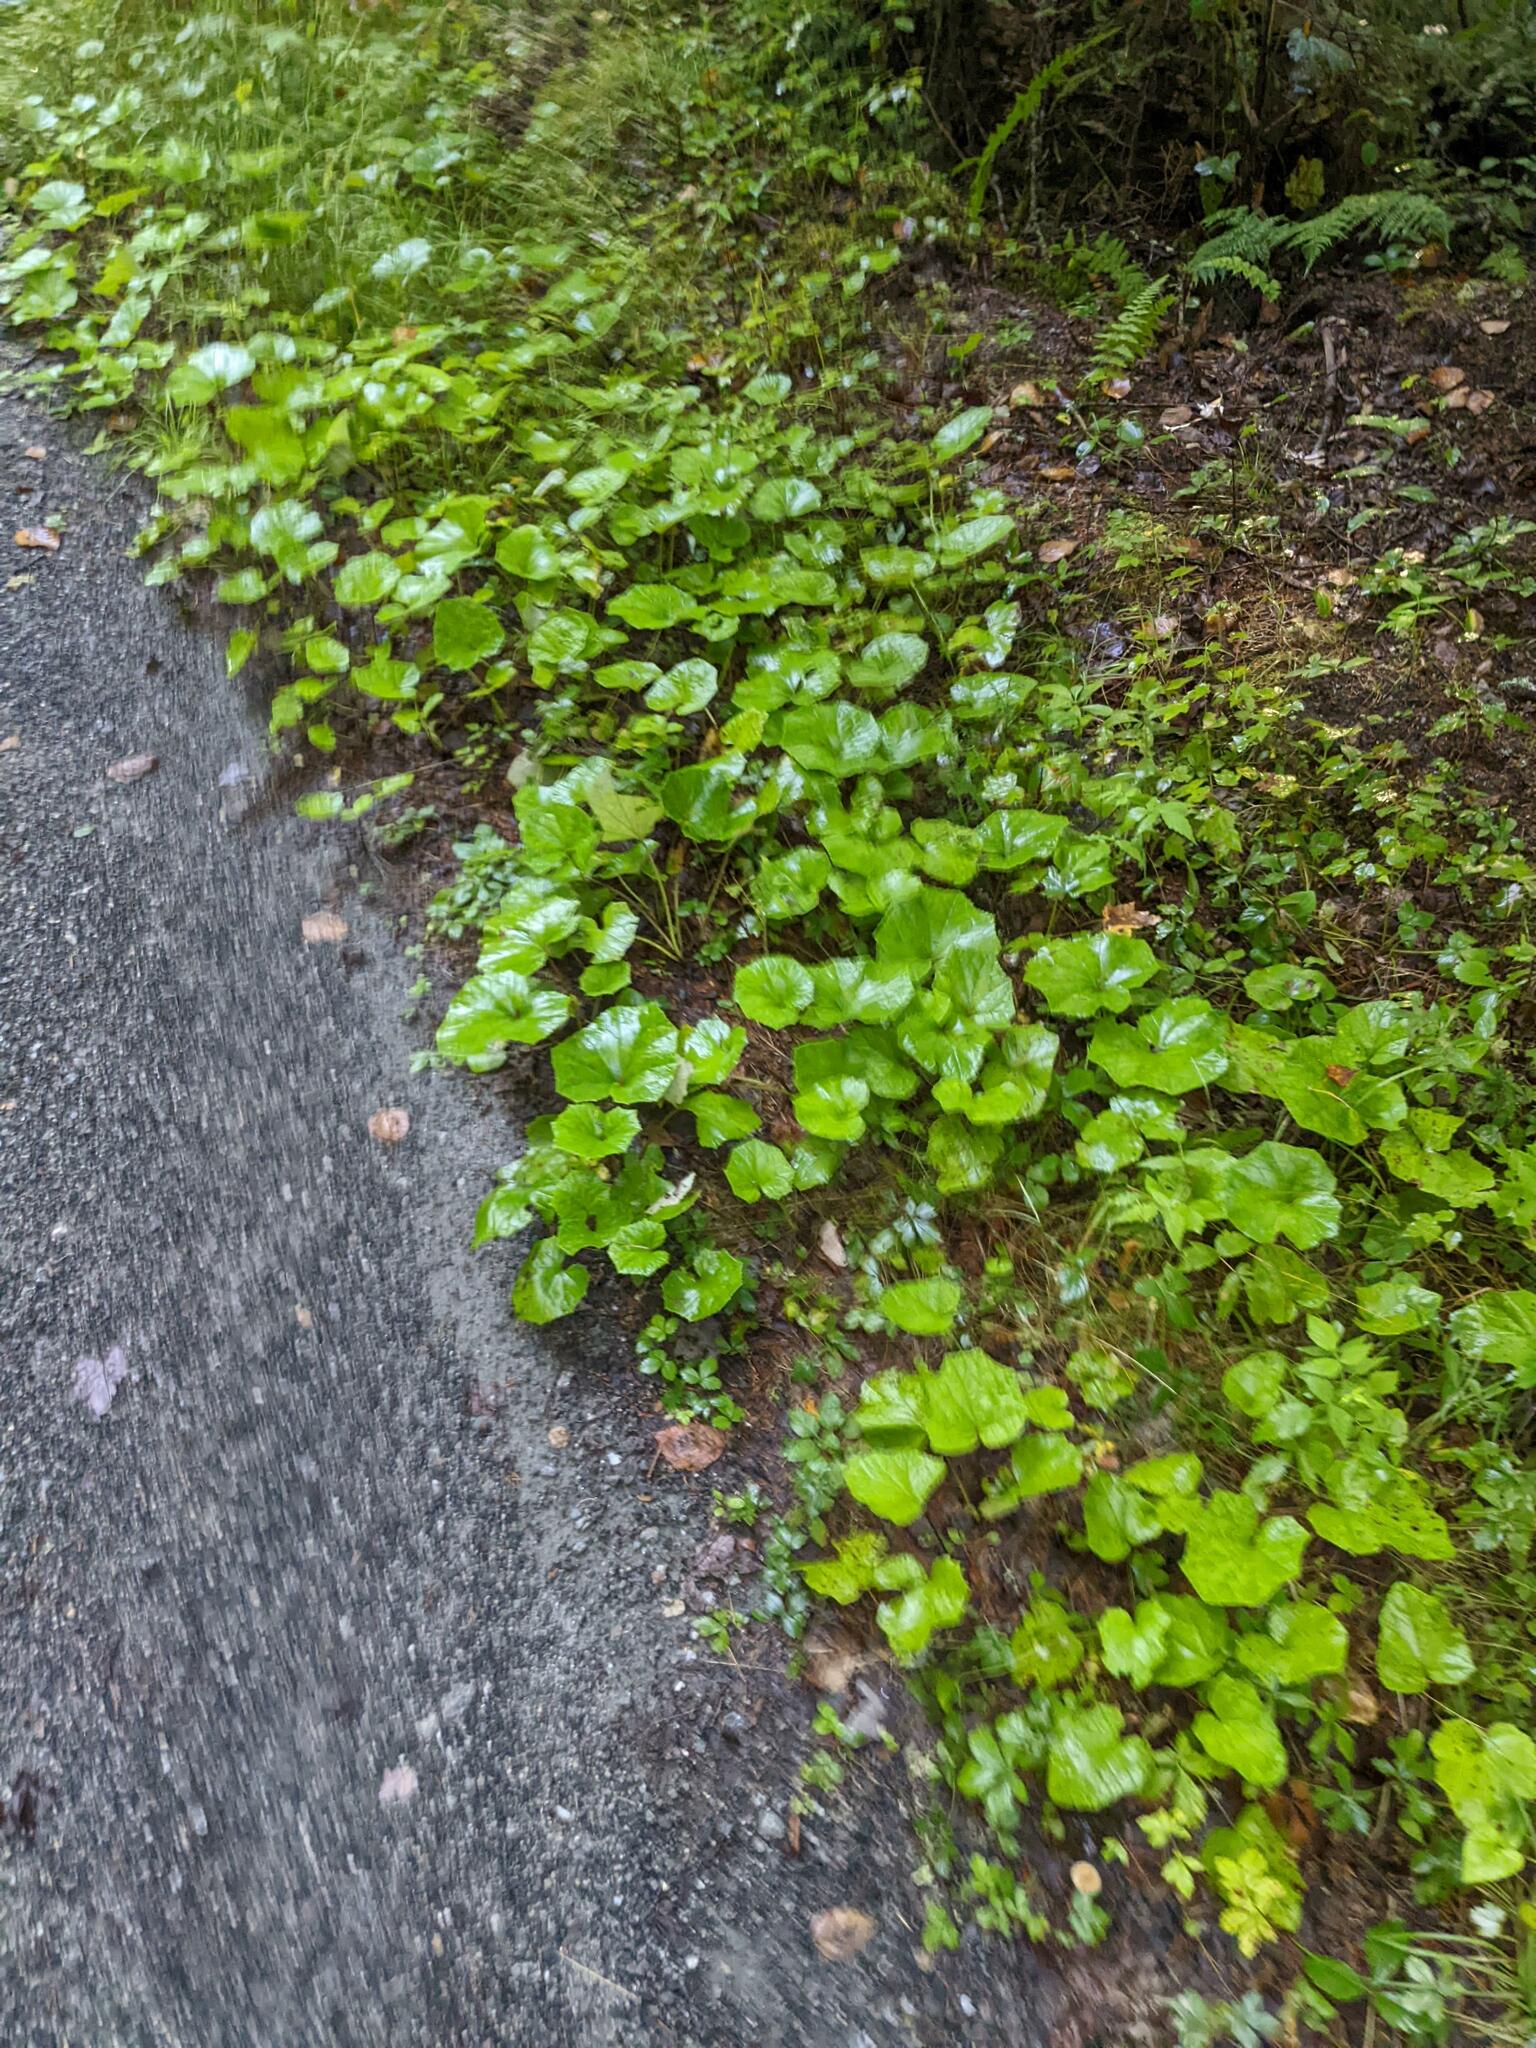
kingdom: Plantae
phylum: Tracheophyta
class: Magnoliopsida
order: Asterales
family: Asteraceae
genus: Tussilago
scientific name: Tussilago farfara
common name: Coltsfoot
